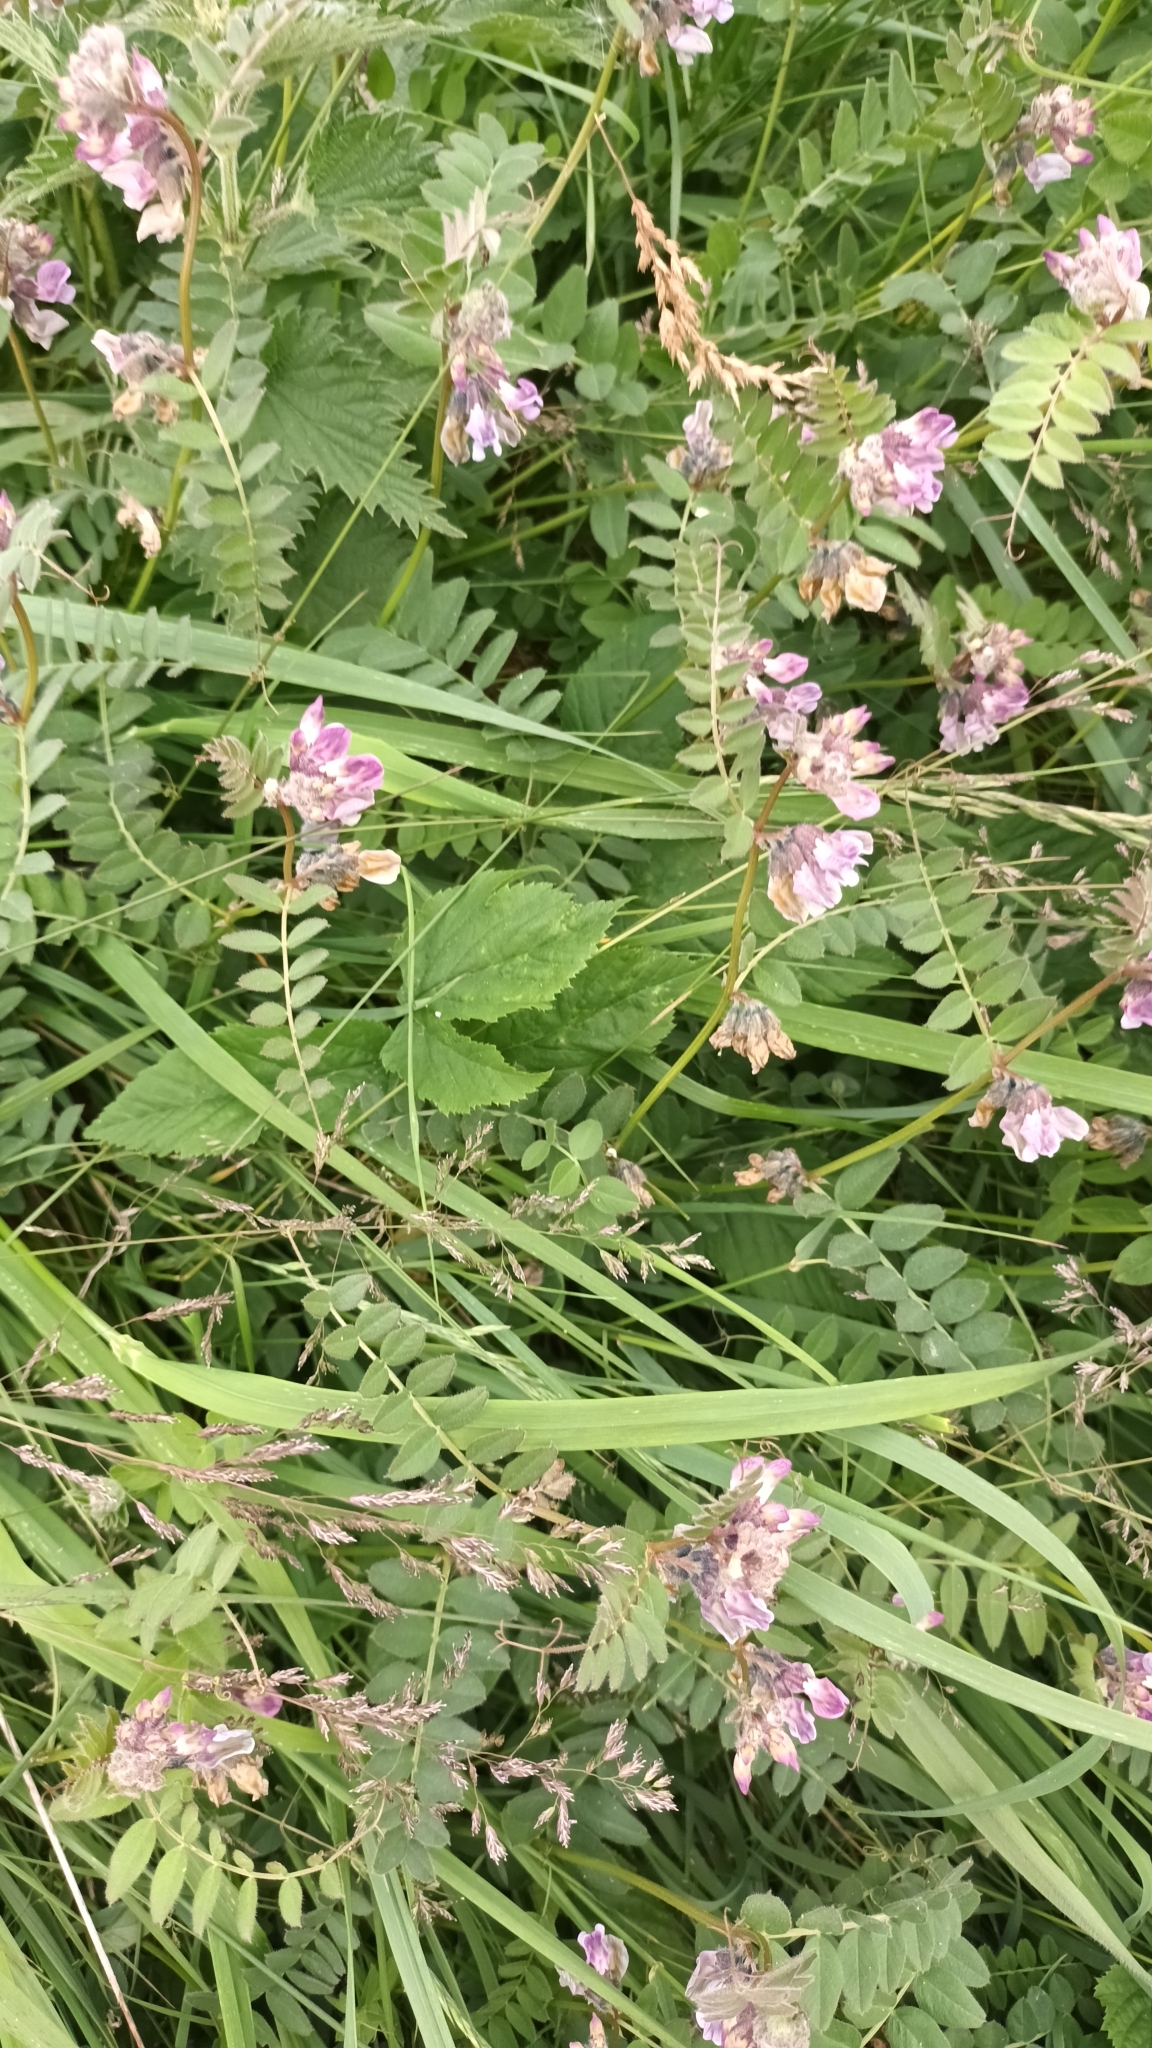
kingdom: Plantae
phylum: Tracheophyta
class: Magnoliopsida
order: Fabales
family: Fabaceae
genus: Vicia
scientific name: Vicia sepium
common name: Bush vetch
